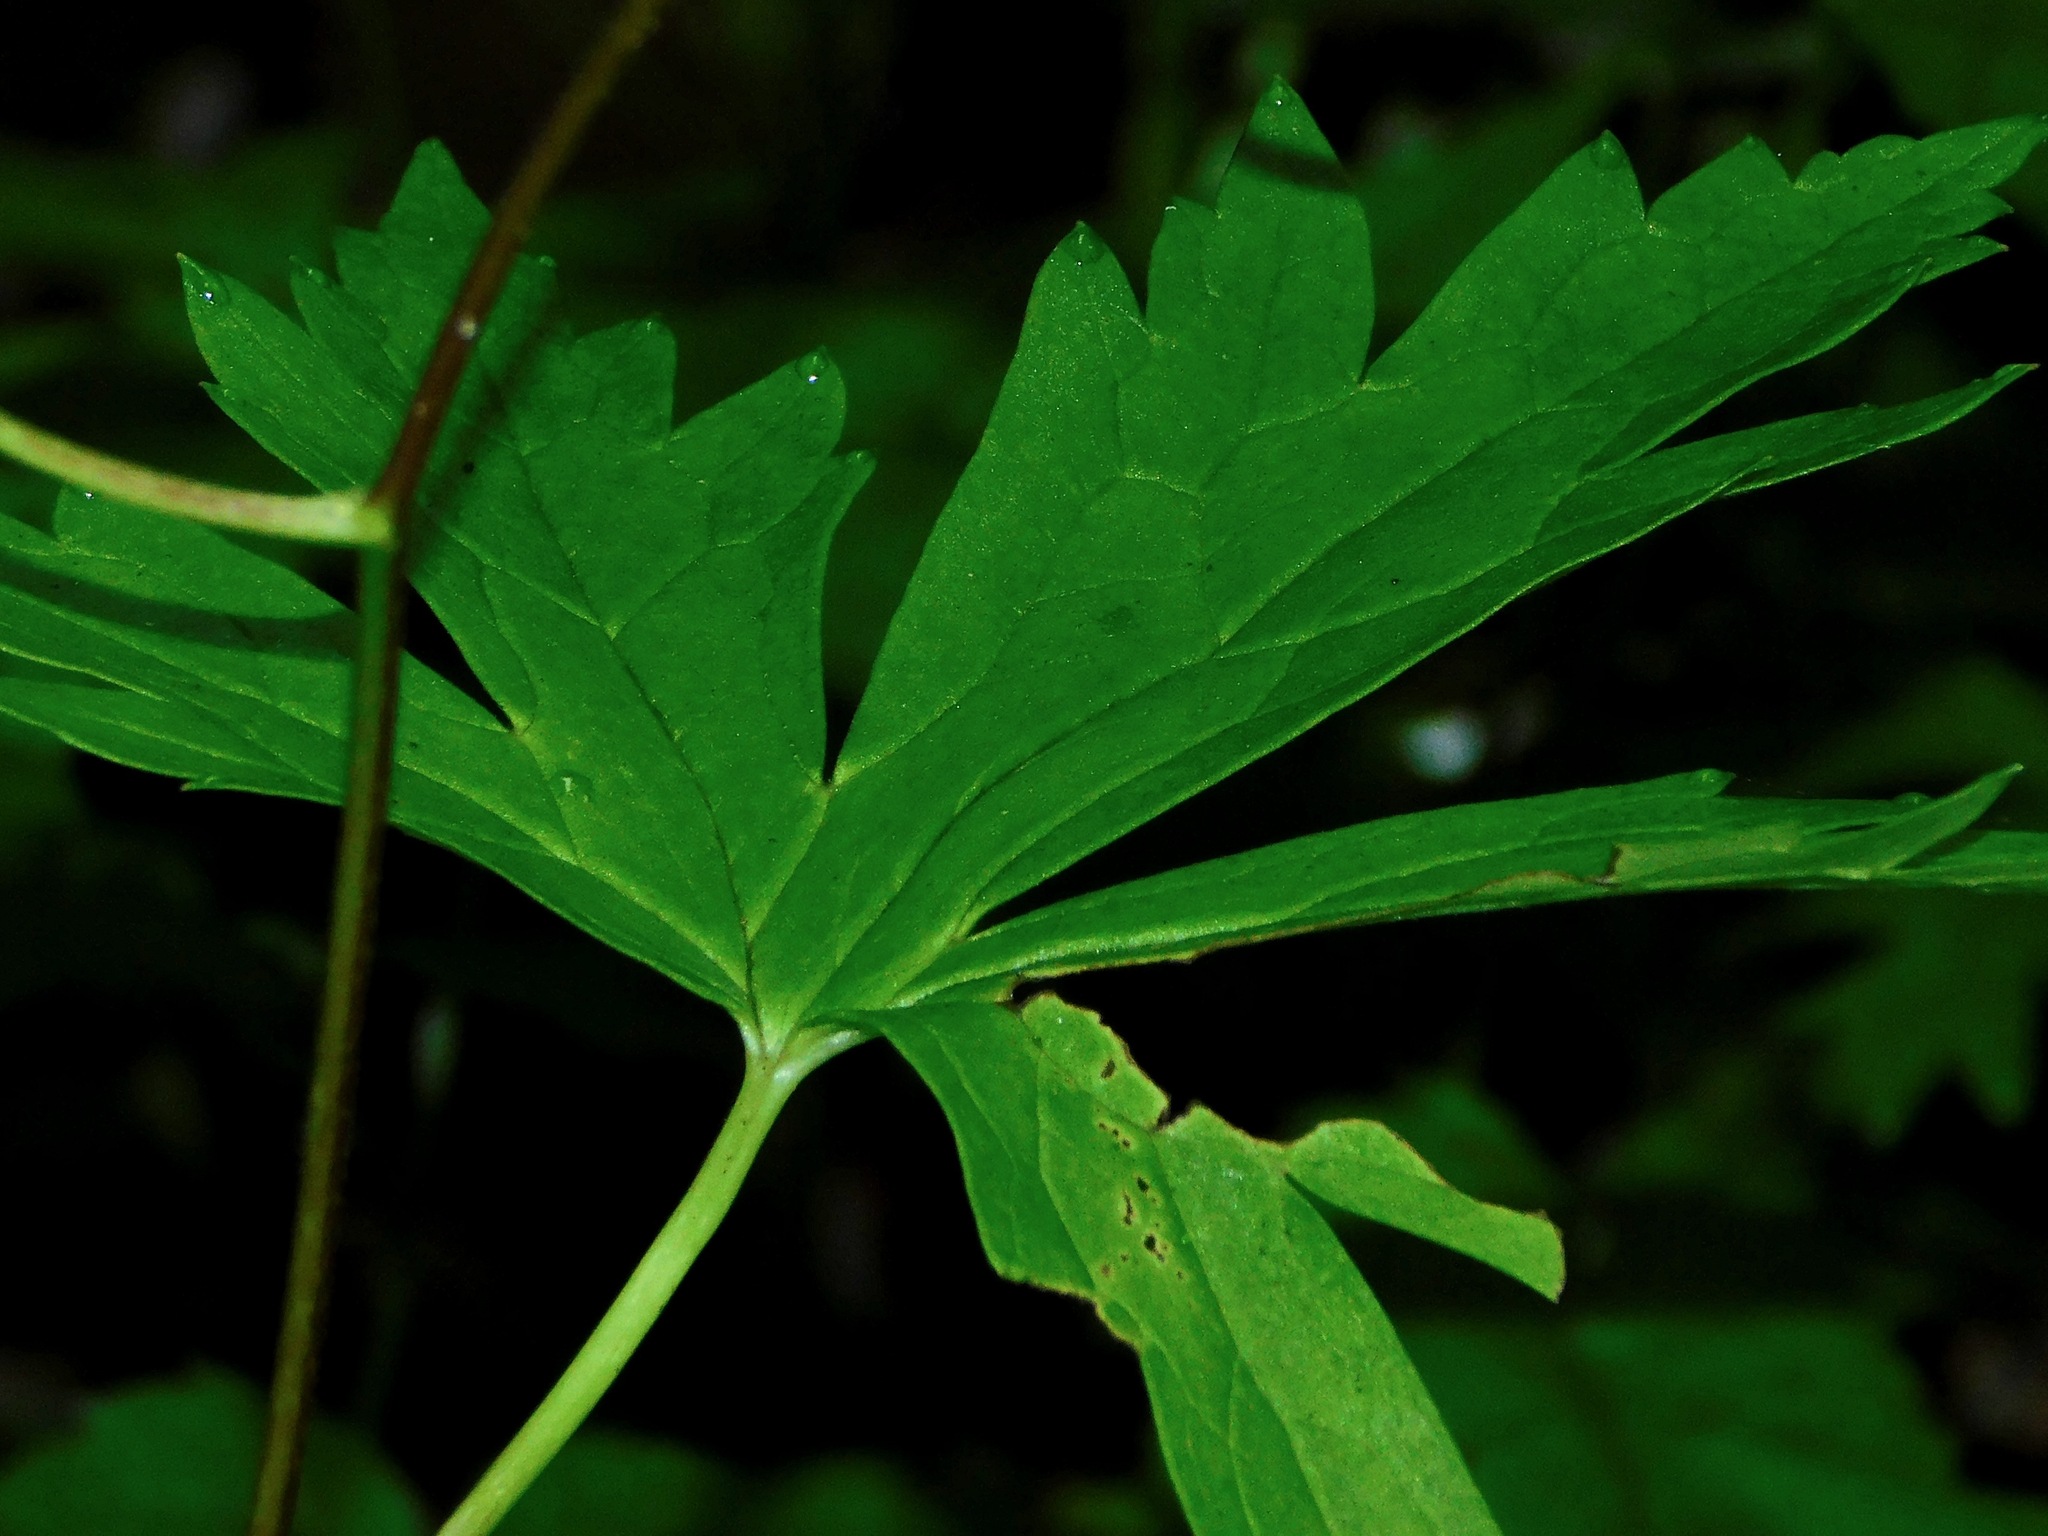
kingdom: Plantae
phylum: Tracheophyta
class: Magnoliopsida
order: Ranunculales
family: Ranunculaceae
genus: Aconitum
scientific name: Aconitum uncinatum
